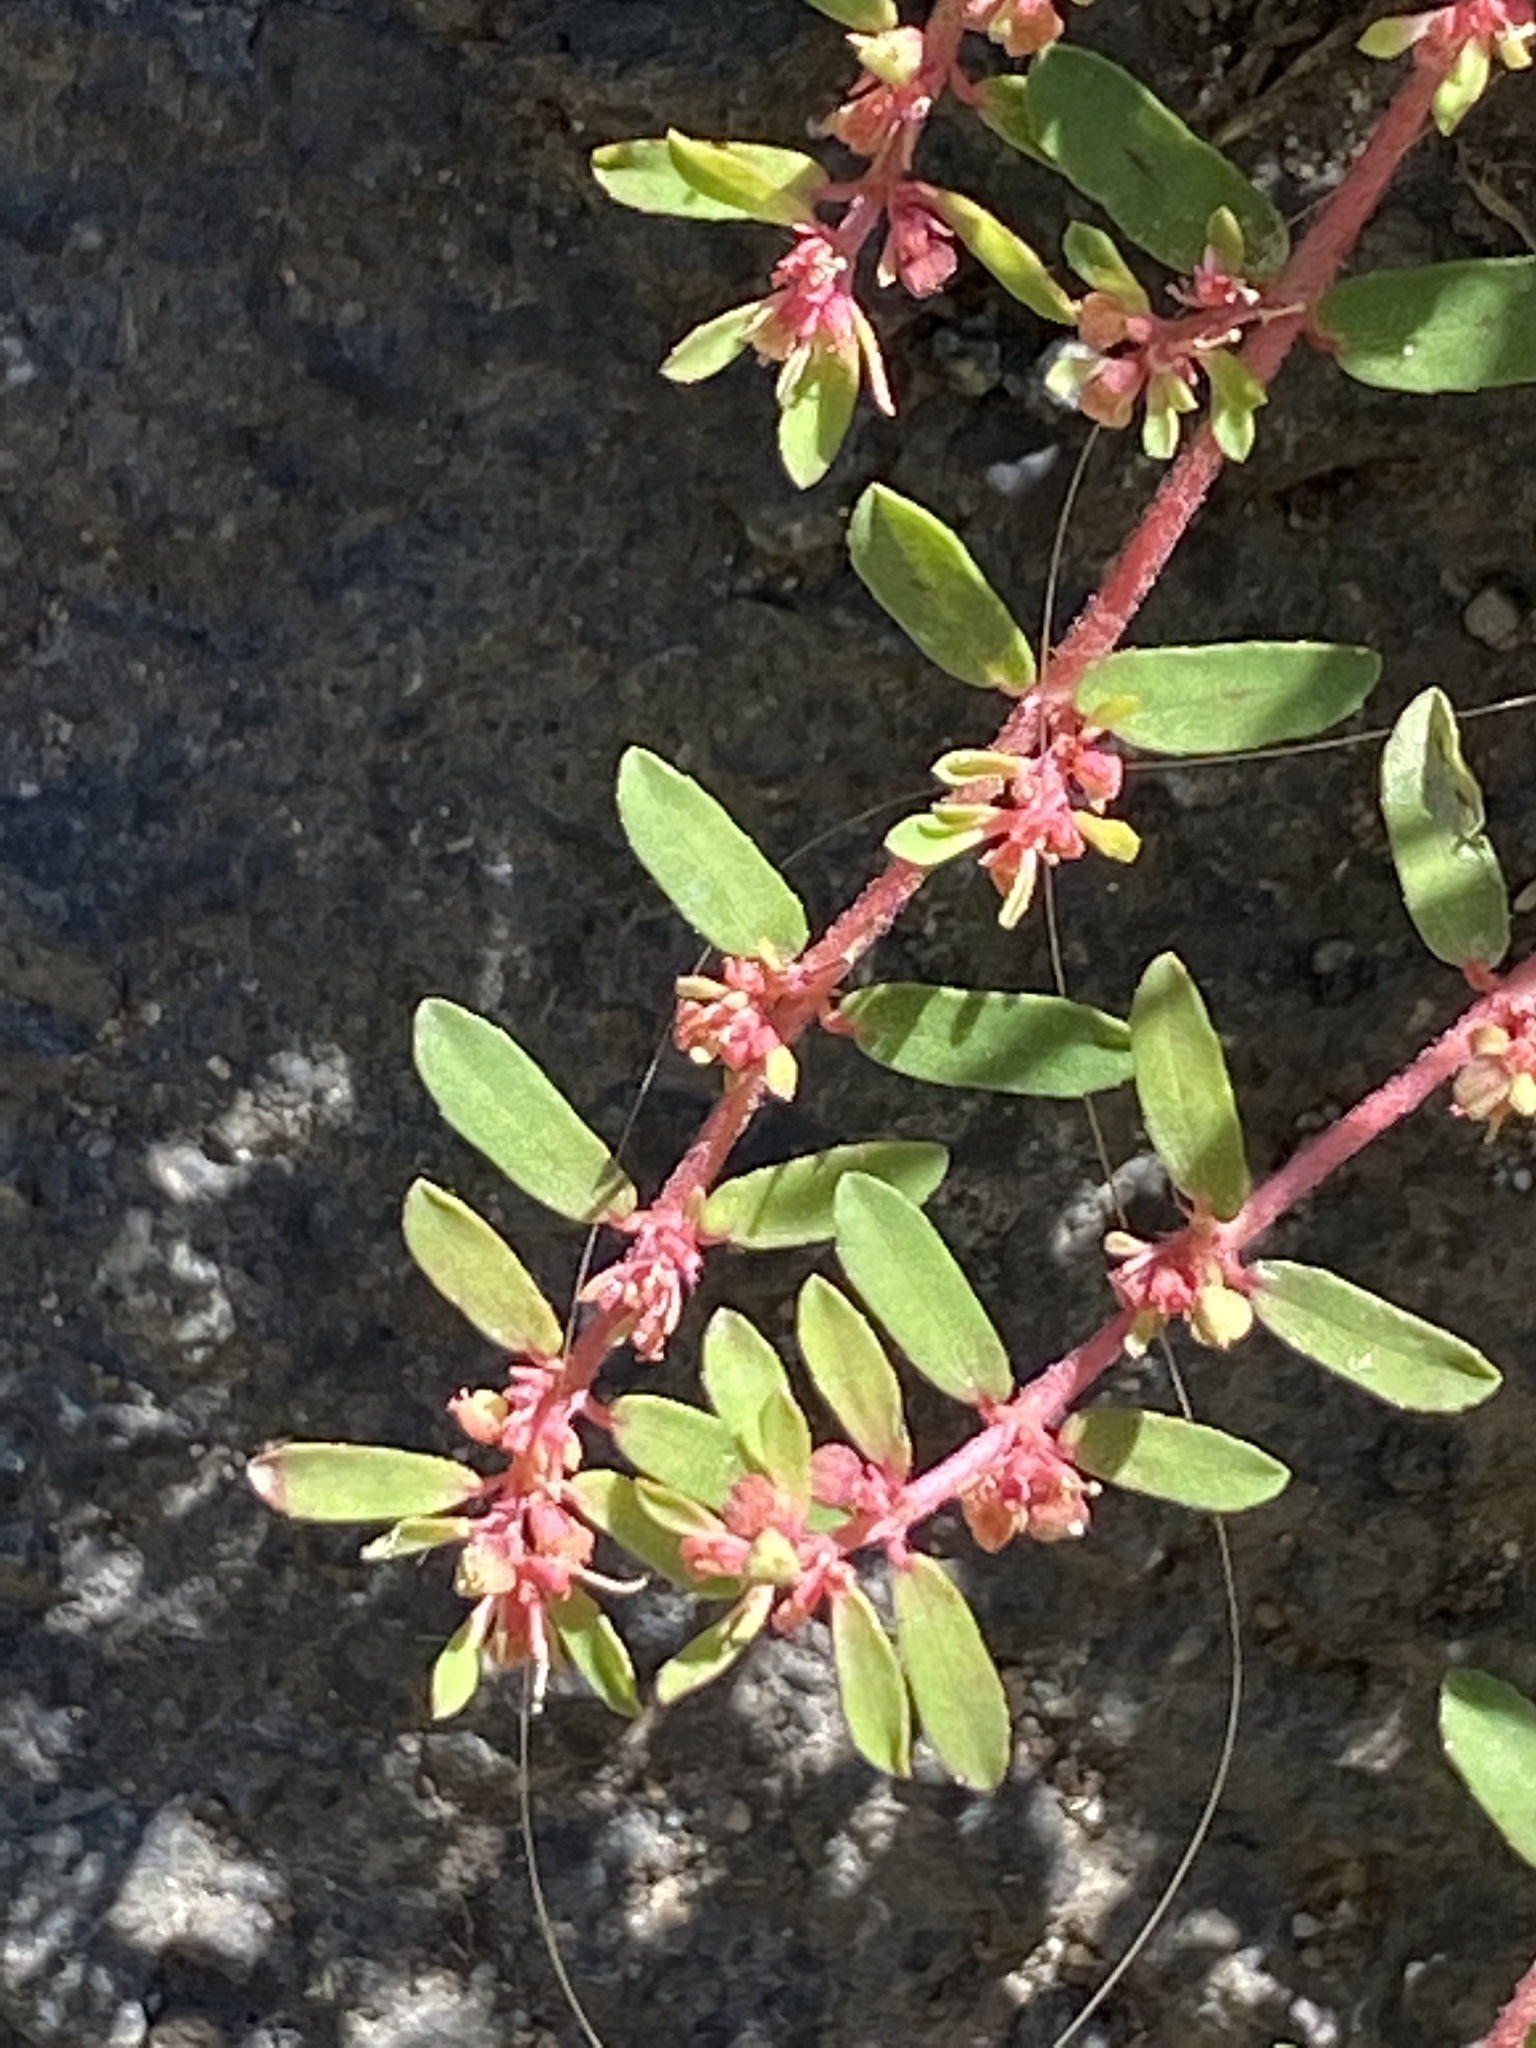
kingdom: Plantae
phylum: Tracheophyta
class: Magnoliopsida
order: Malpighiales
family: Euphorbiaceae
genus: Euphorbia
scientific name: Euphorbia maculata
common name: Spotted spurge
